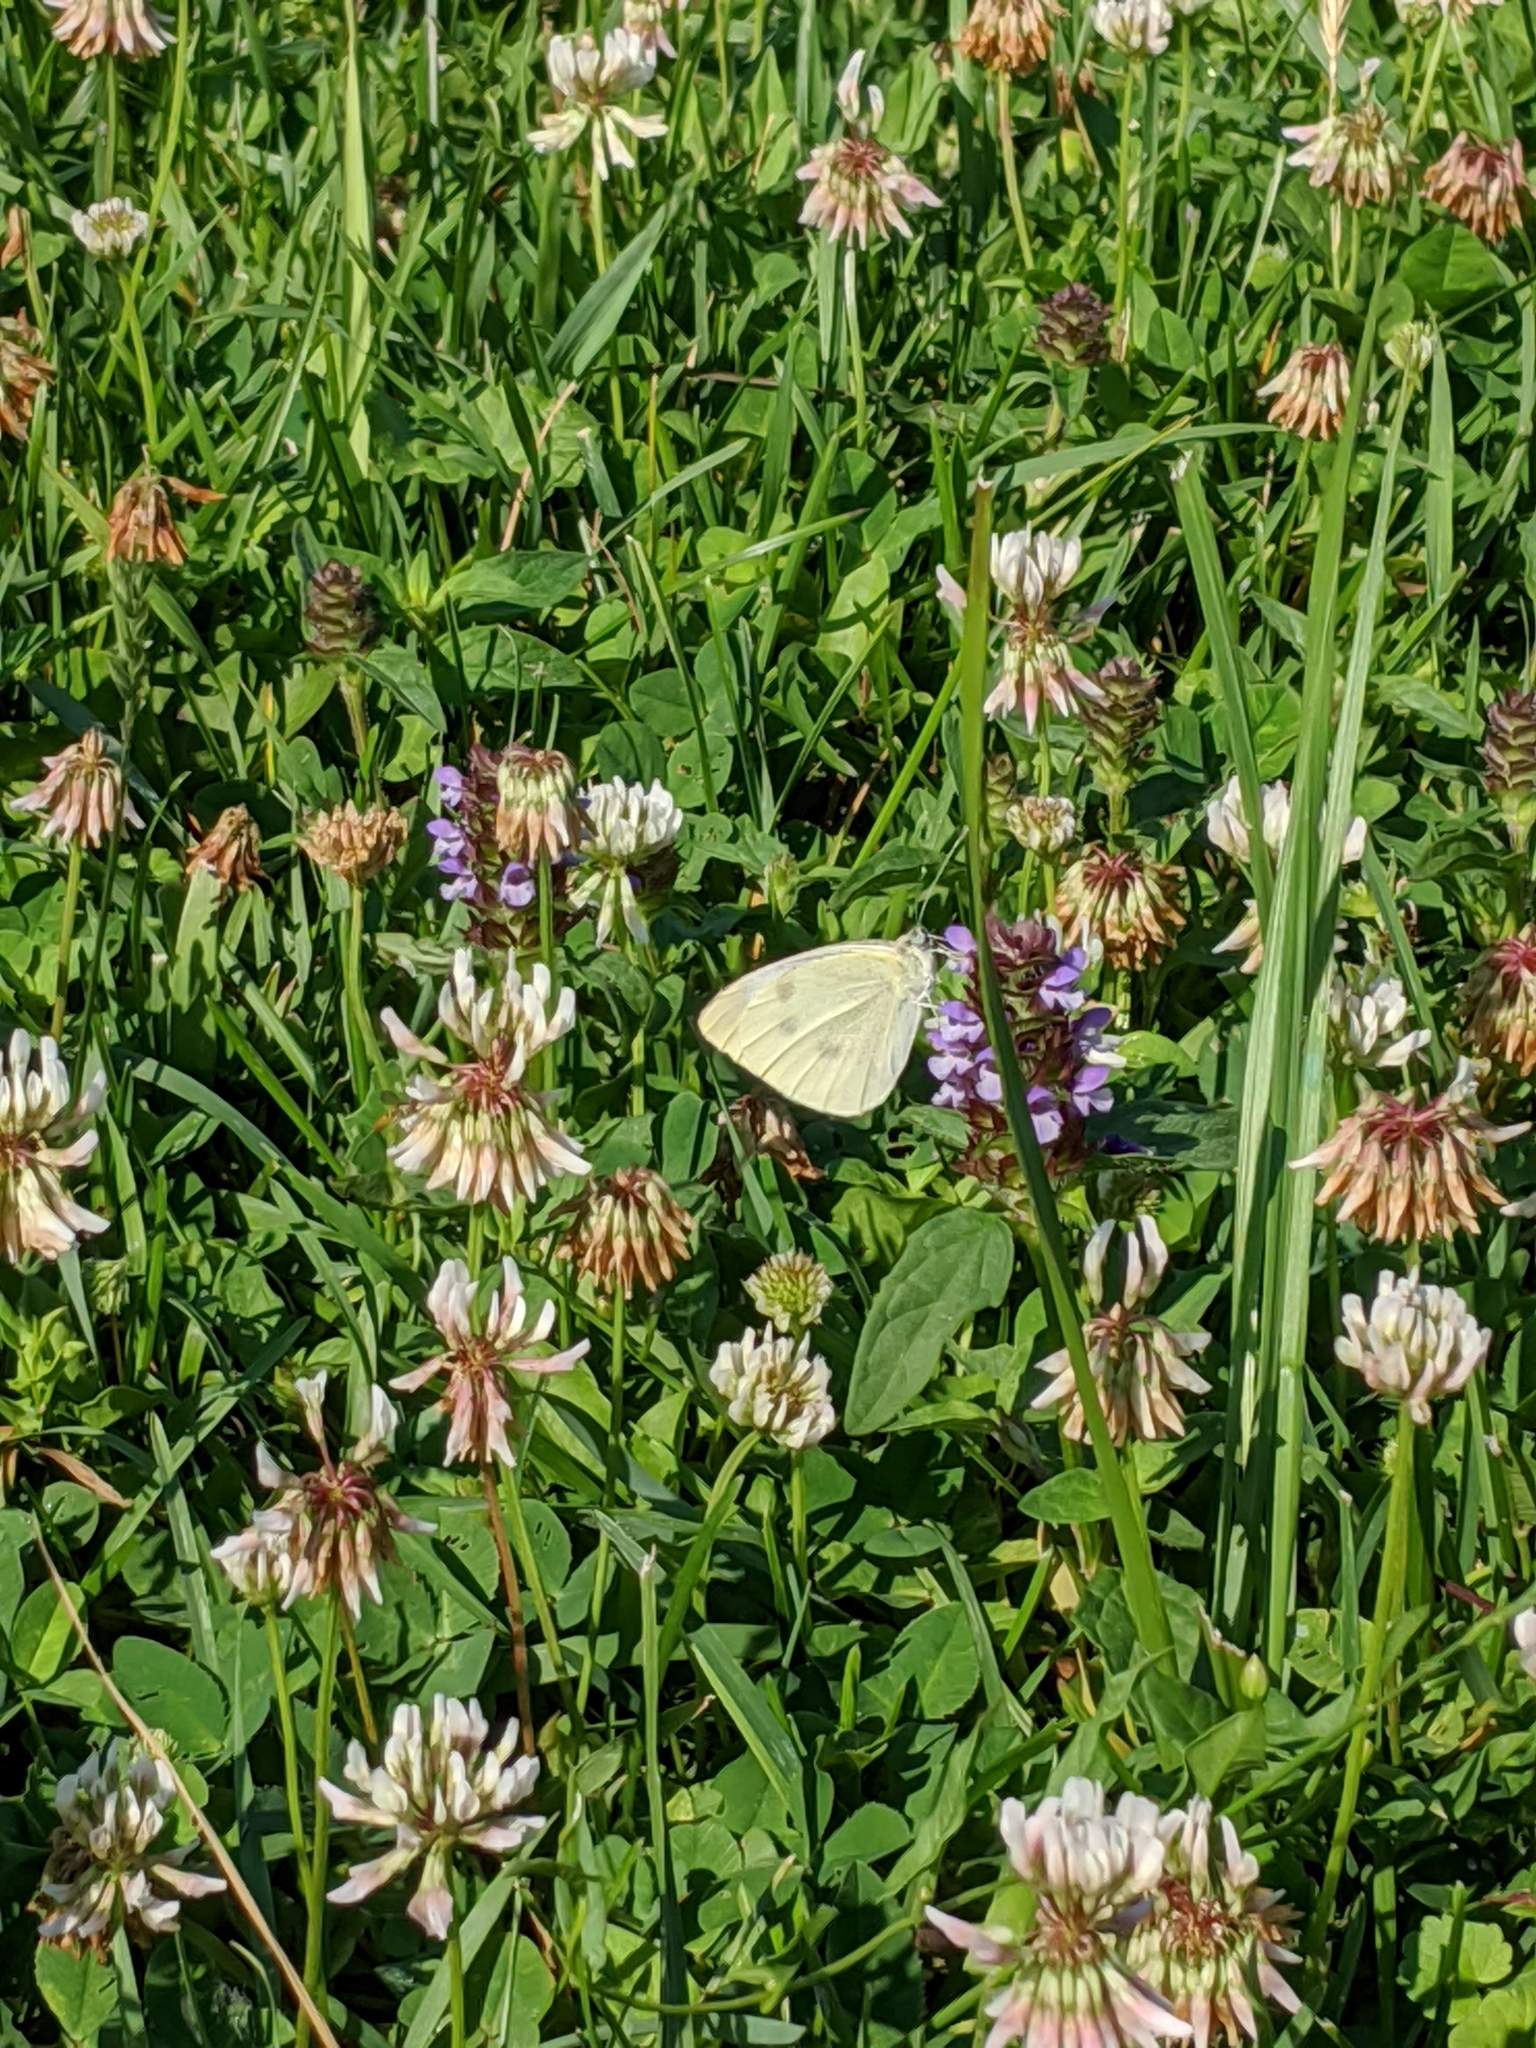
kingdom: Animalia
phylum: Arthropoda
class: Insecta
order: Lepidoptera
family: Pieridae
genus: Pieris
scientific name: Pieris rapae
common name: Small white
